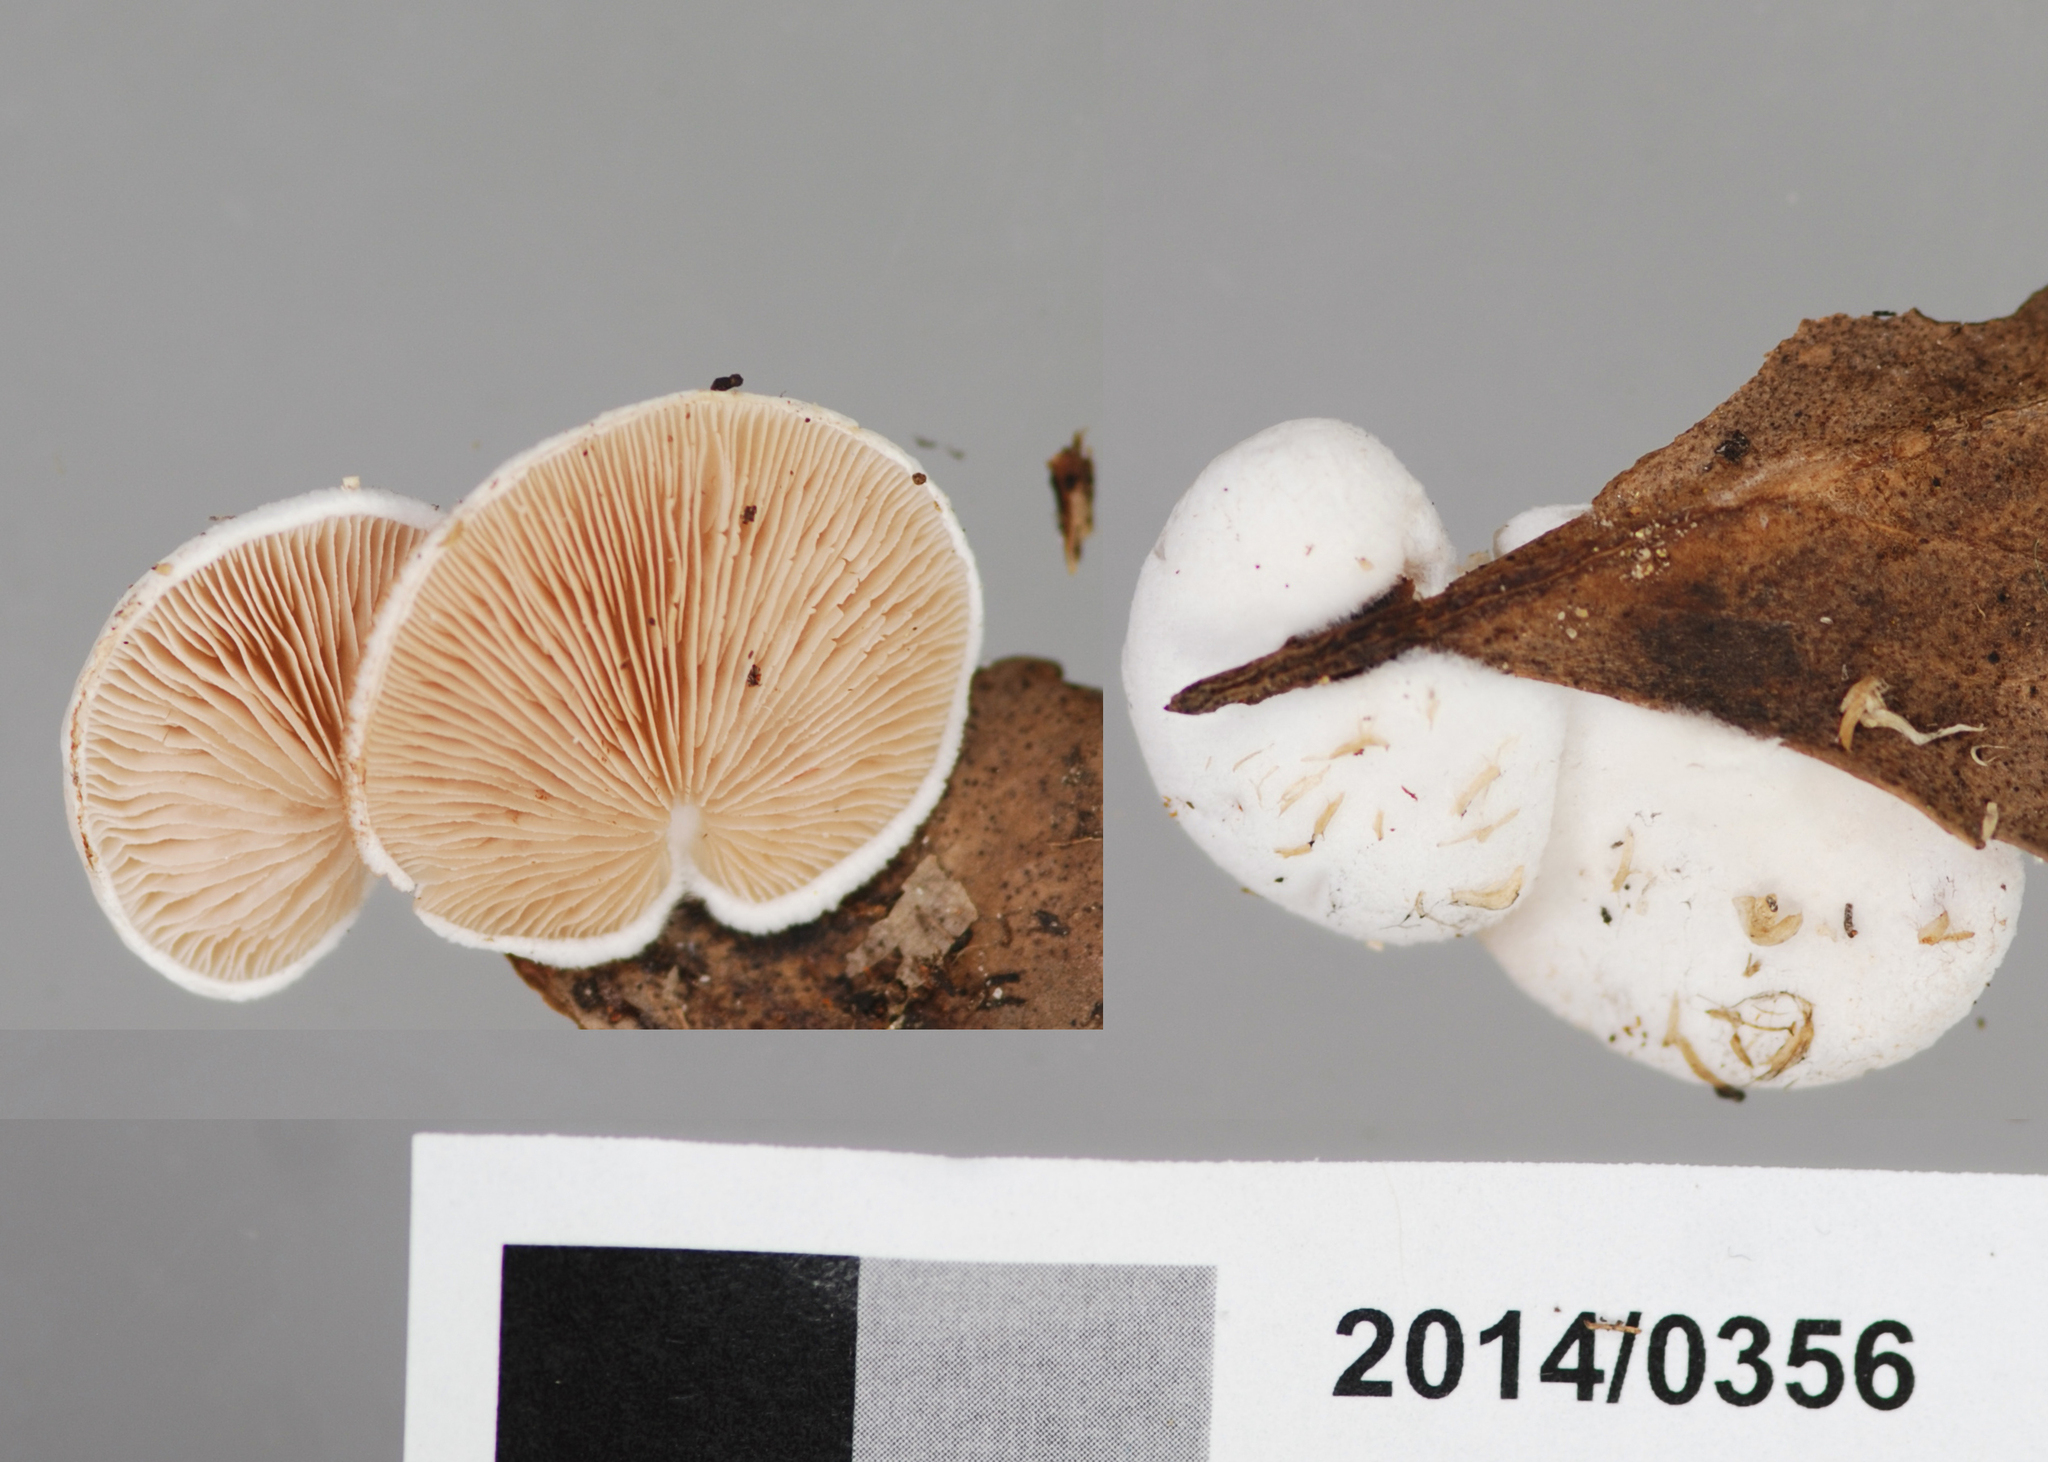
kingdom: Fungi
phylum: Basidiomycota
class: Agaricomycetes
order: Agaricales
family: Crepidotaceae
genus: Crepidotus
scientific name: Crepidotus albolanatus
